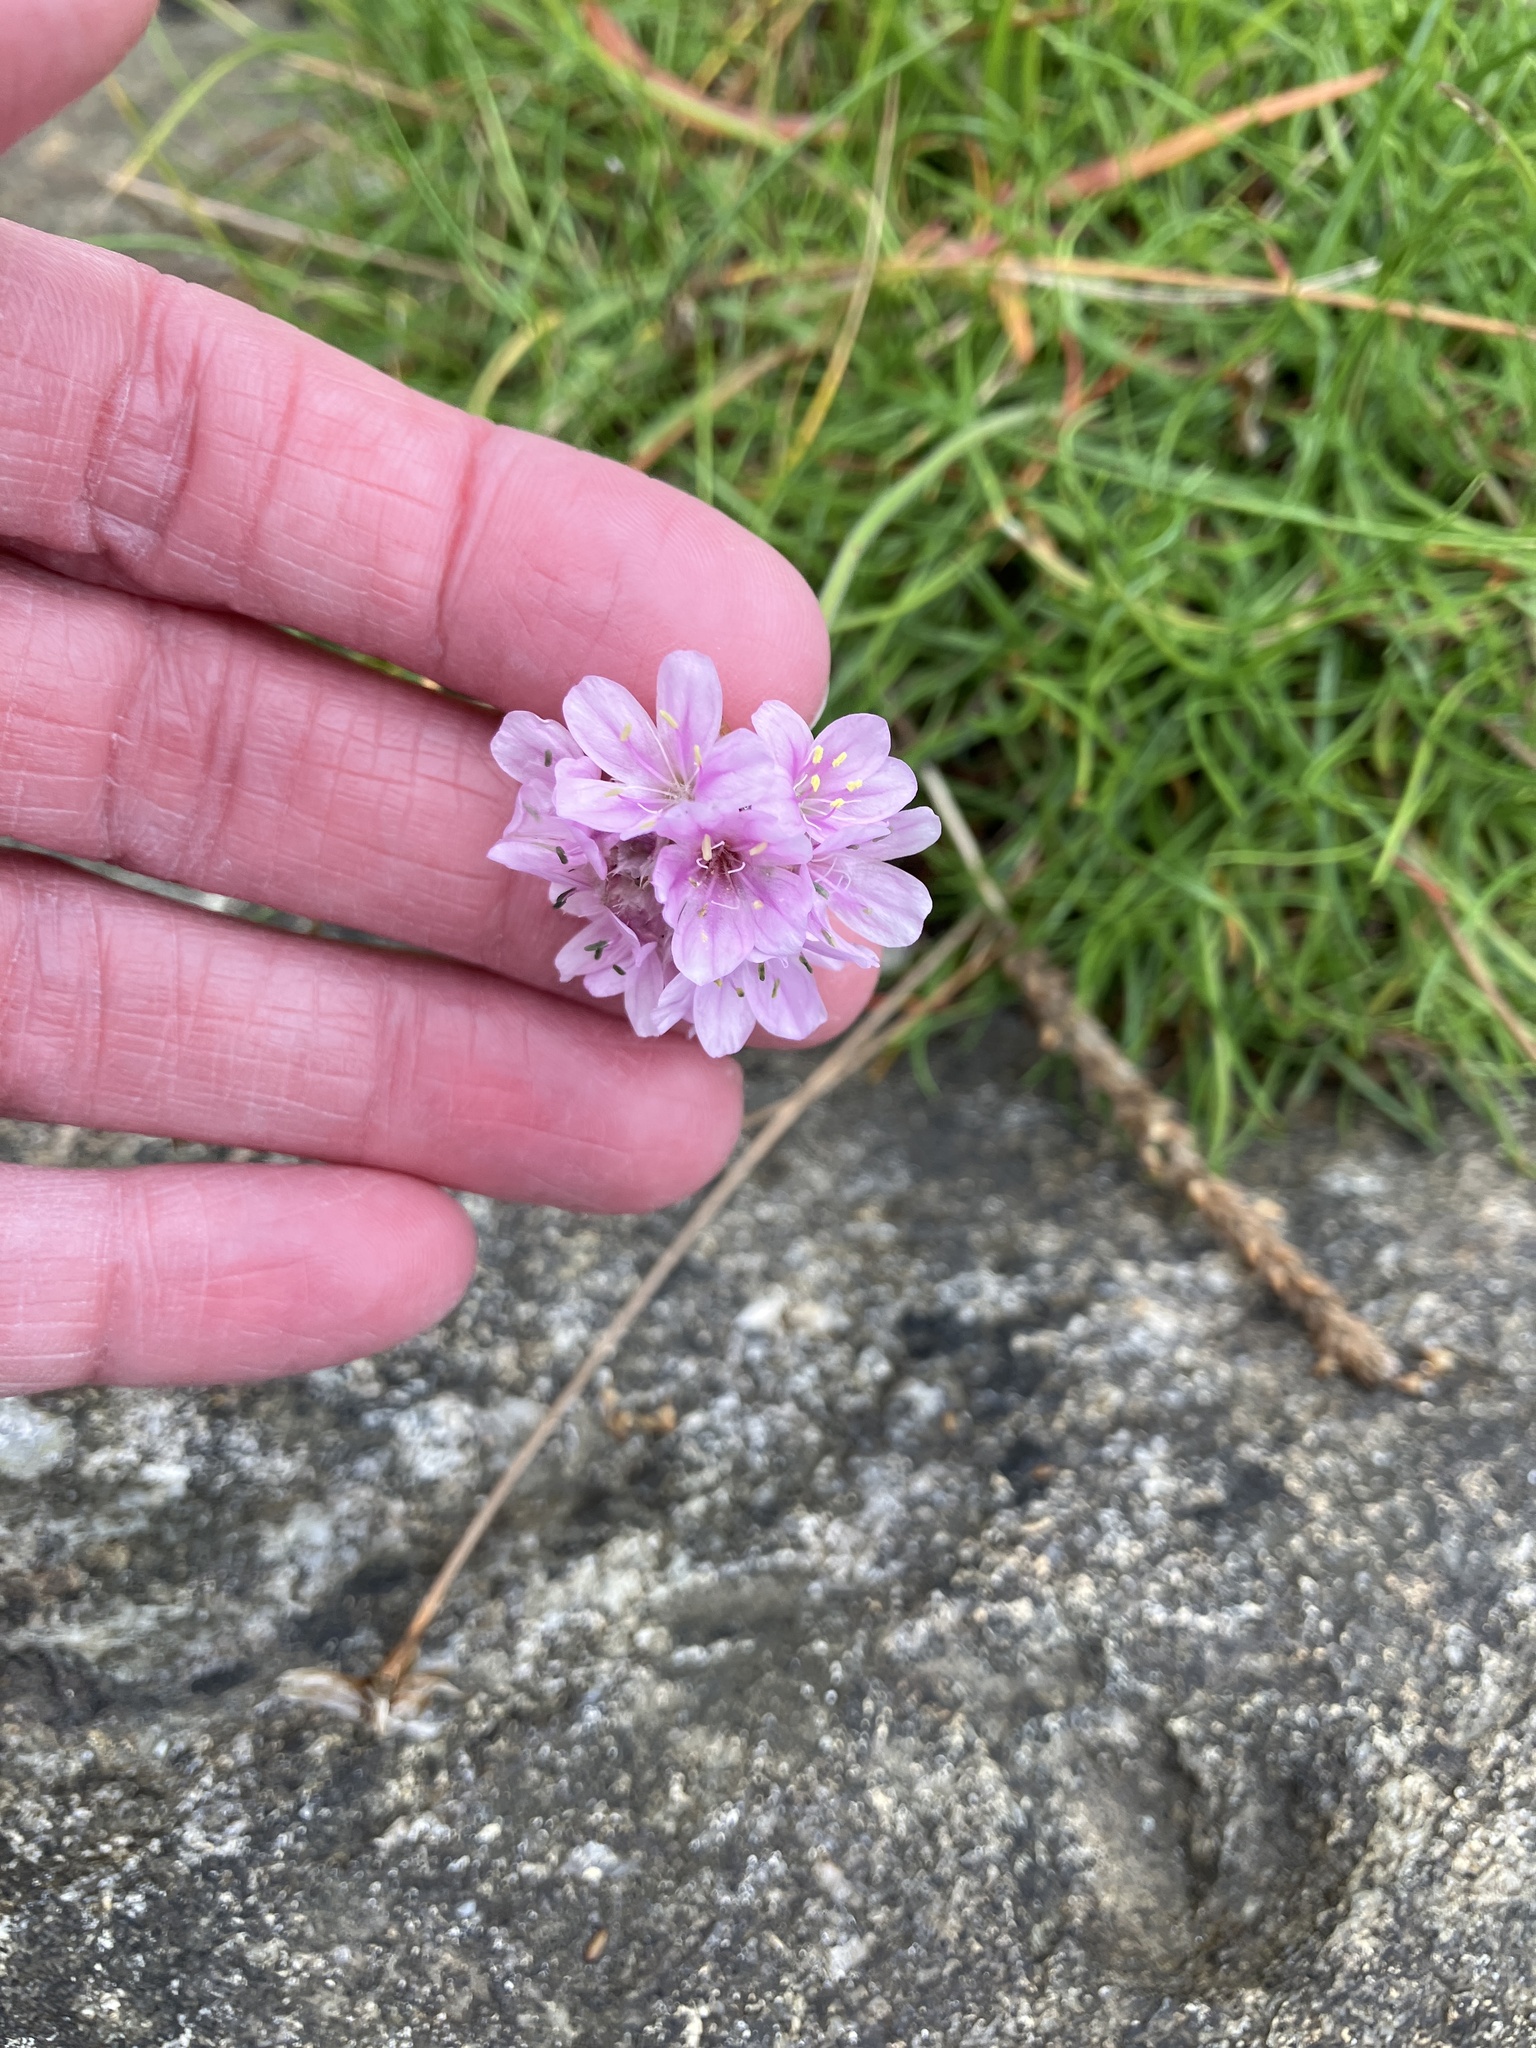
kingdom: Plantae
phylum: Tracheophyta
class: Magnoliopsida
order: Caryophyllales
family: Plumbaginaceae
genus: Armeria
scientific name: Armeria maritima
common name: Thrift
